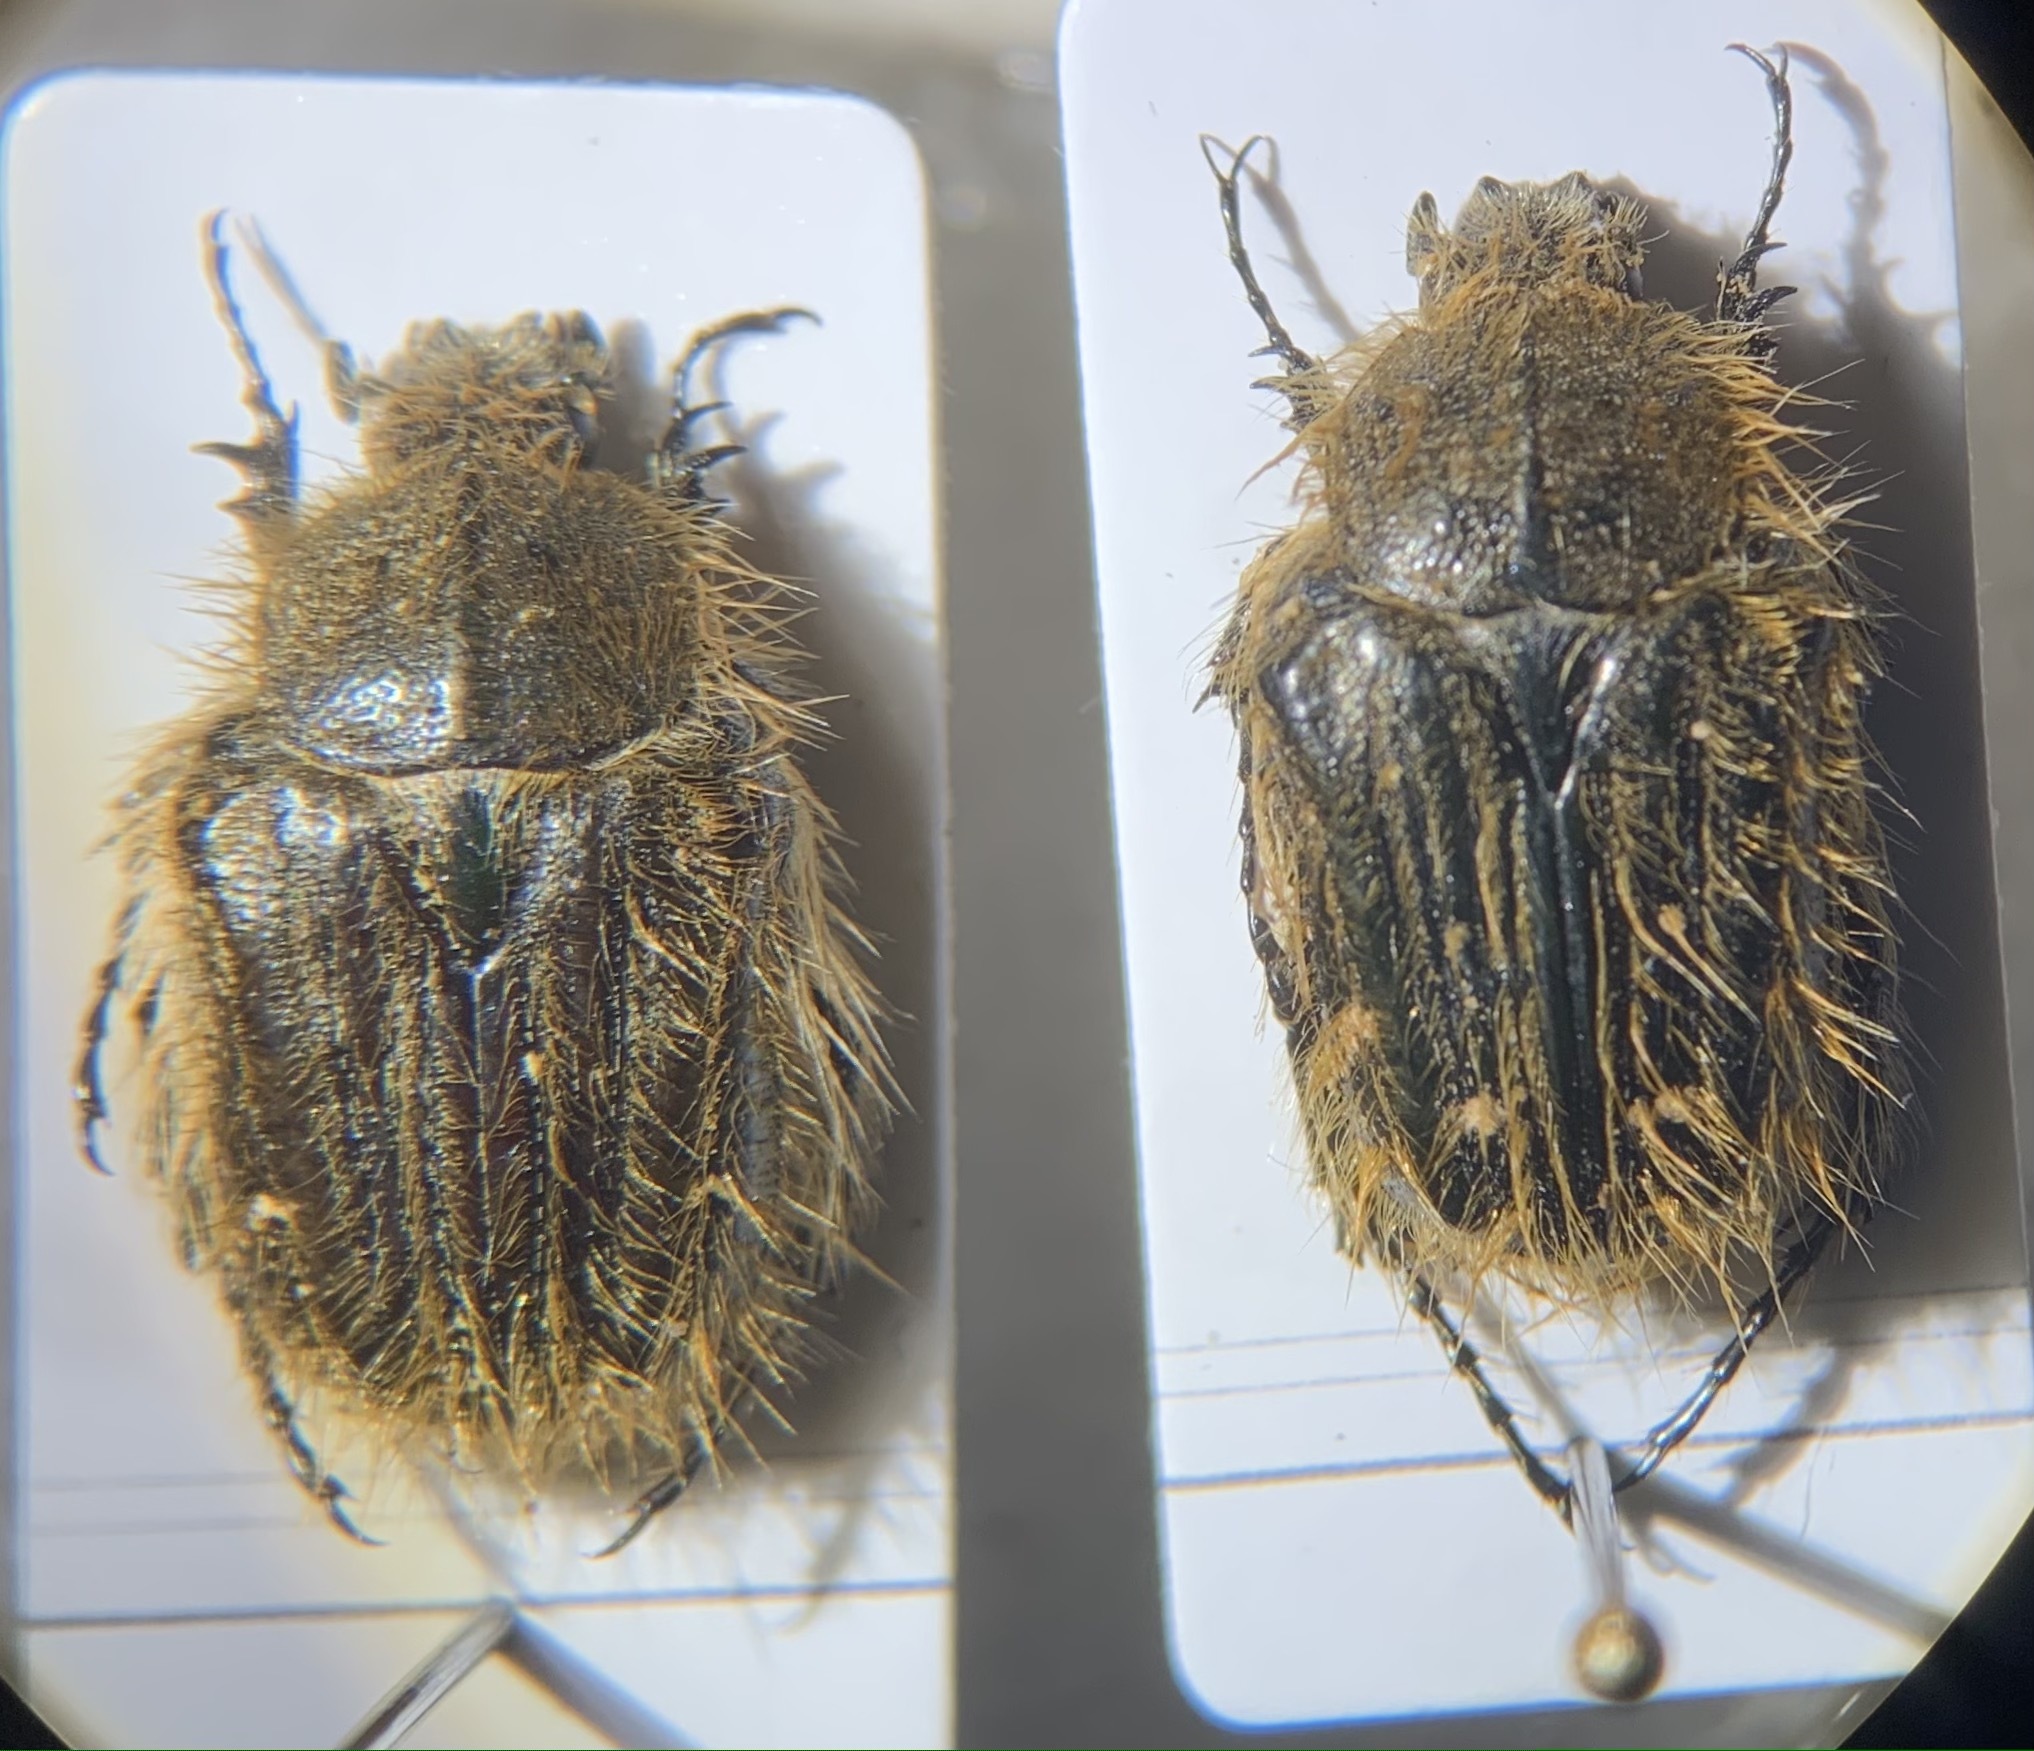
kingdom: Animalia
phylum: Arthropoda
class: Insecta
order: Coleoptera
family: Scarabaeidae
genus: Tropinota
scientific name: Tropinota squalida
